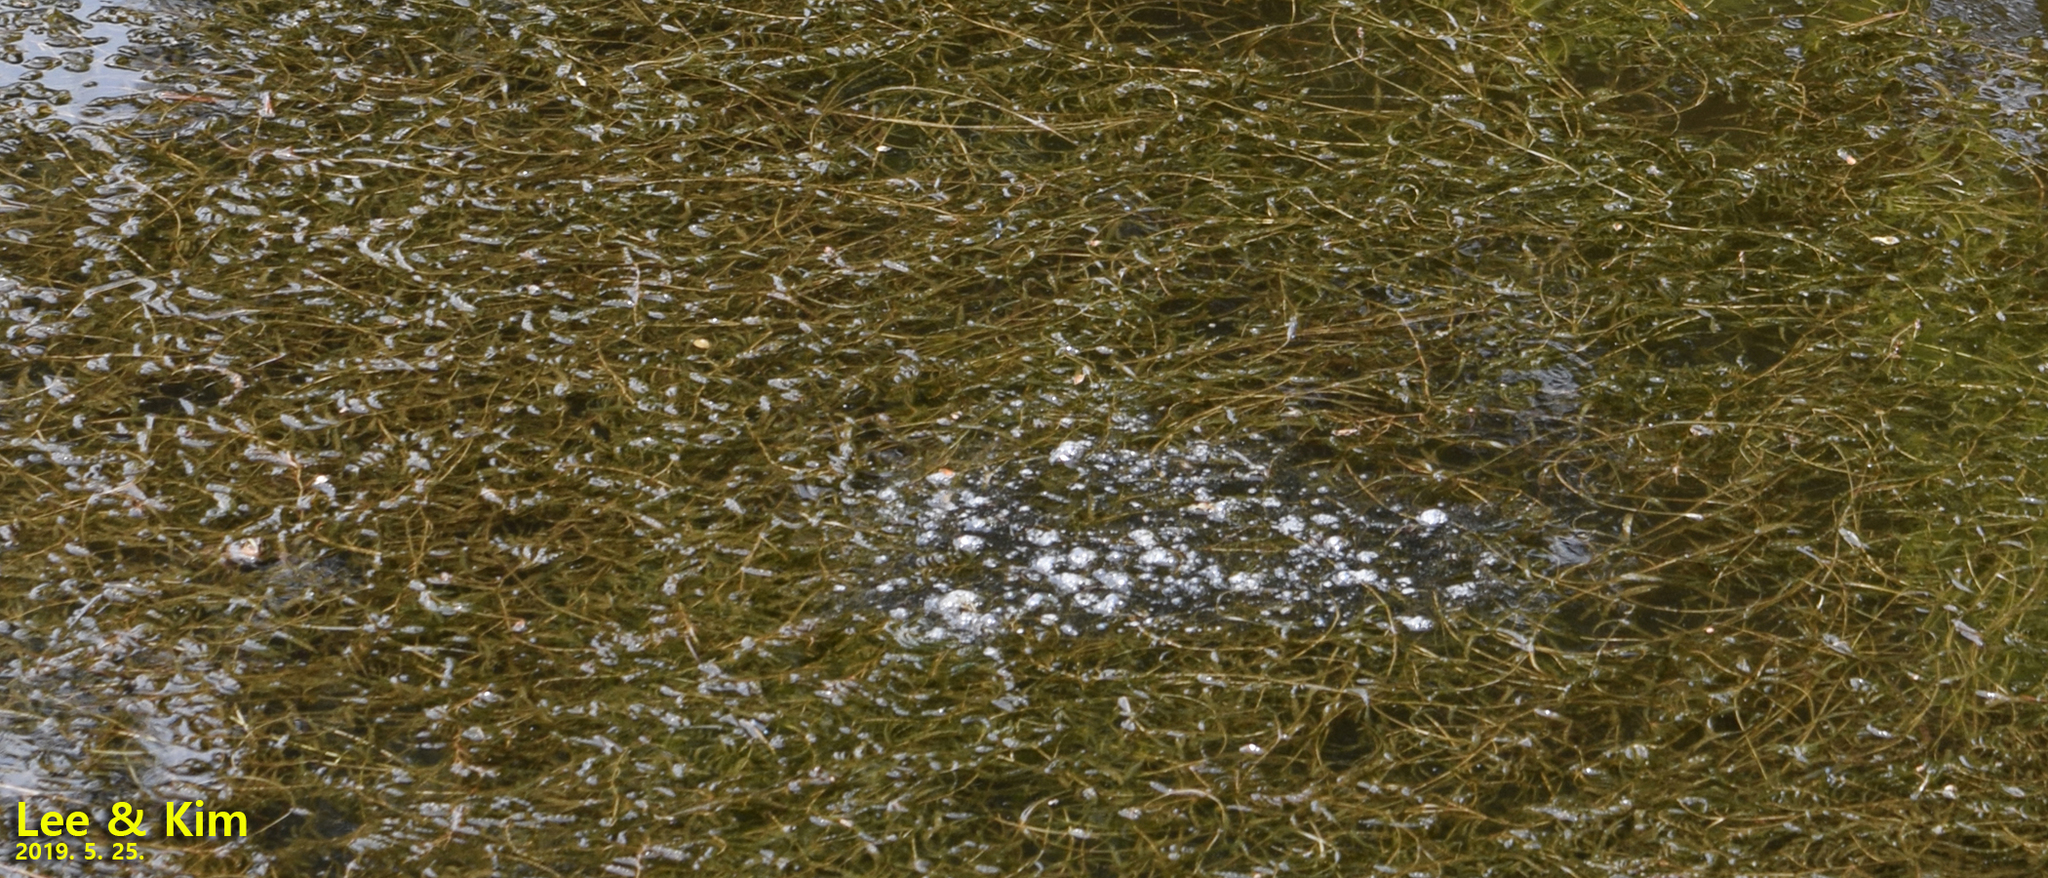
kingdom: Animalia
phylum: Chordata
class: Amphibia
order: Anura
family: Ranidae
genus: Lithobates
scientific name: Lithobates catesbeianus
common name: American bullfrog
